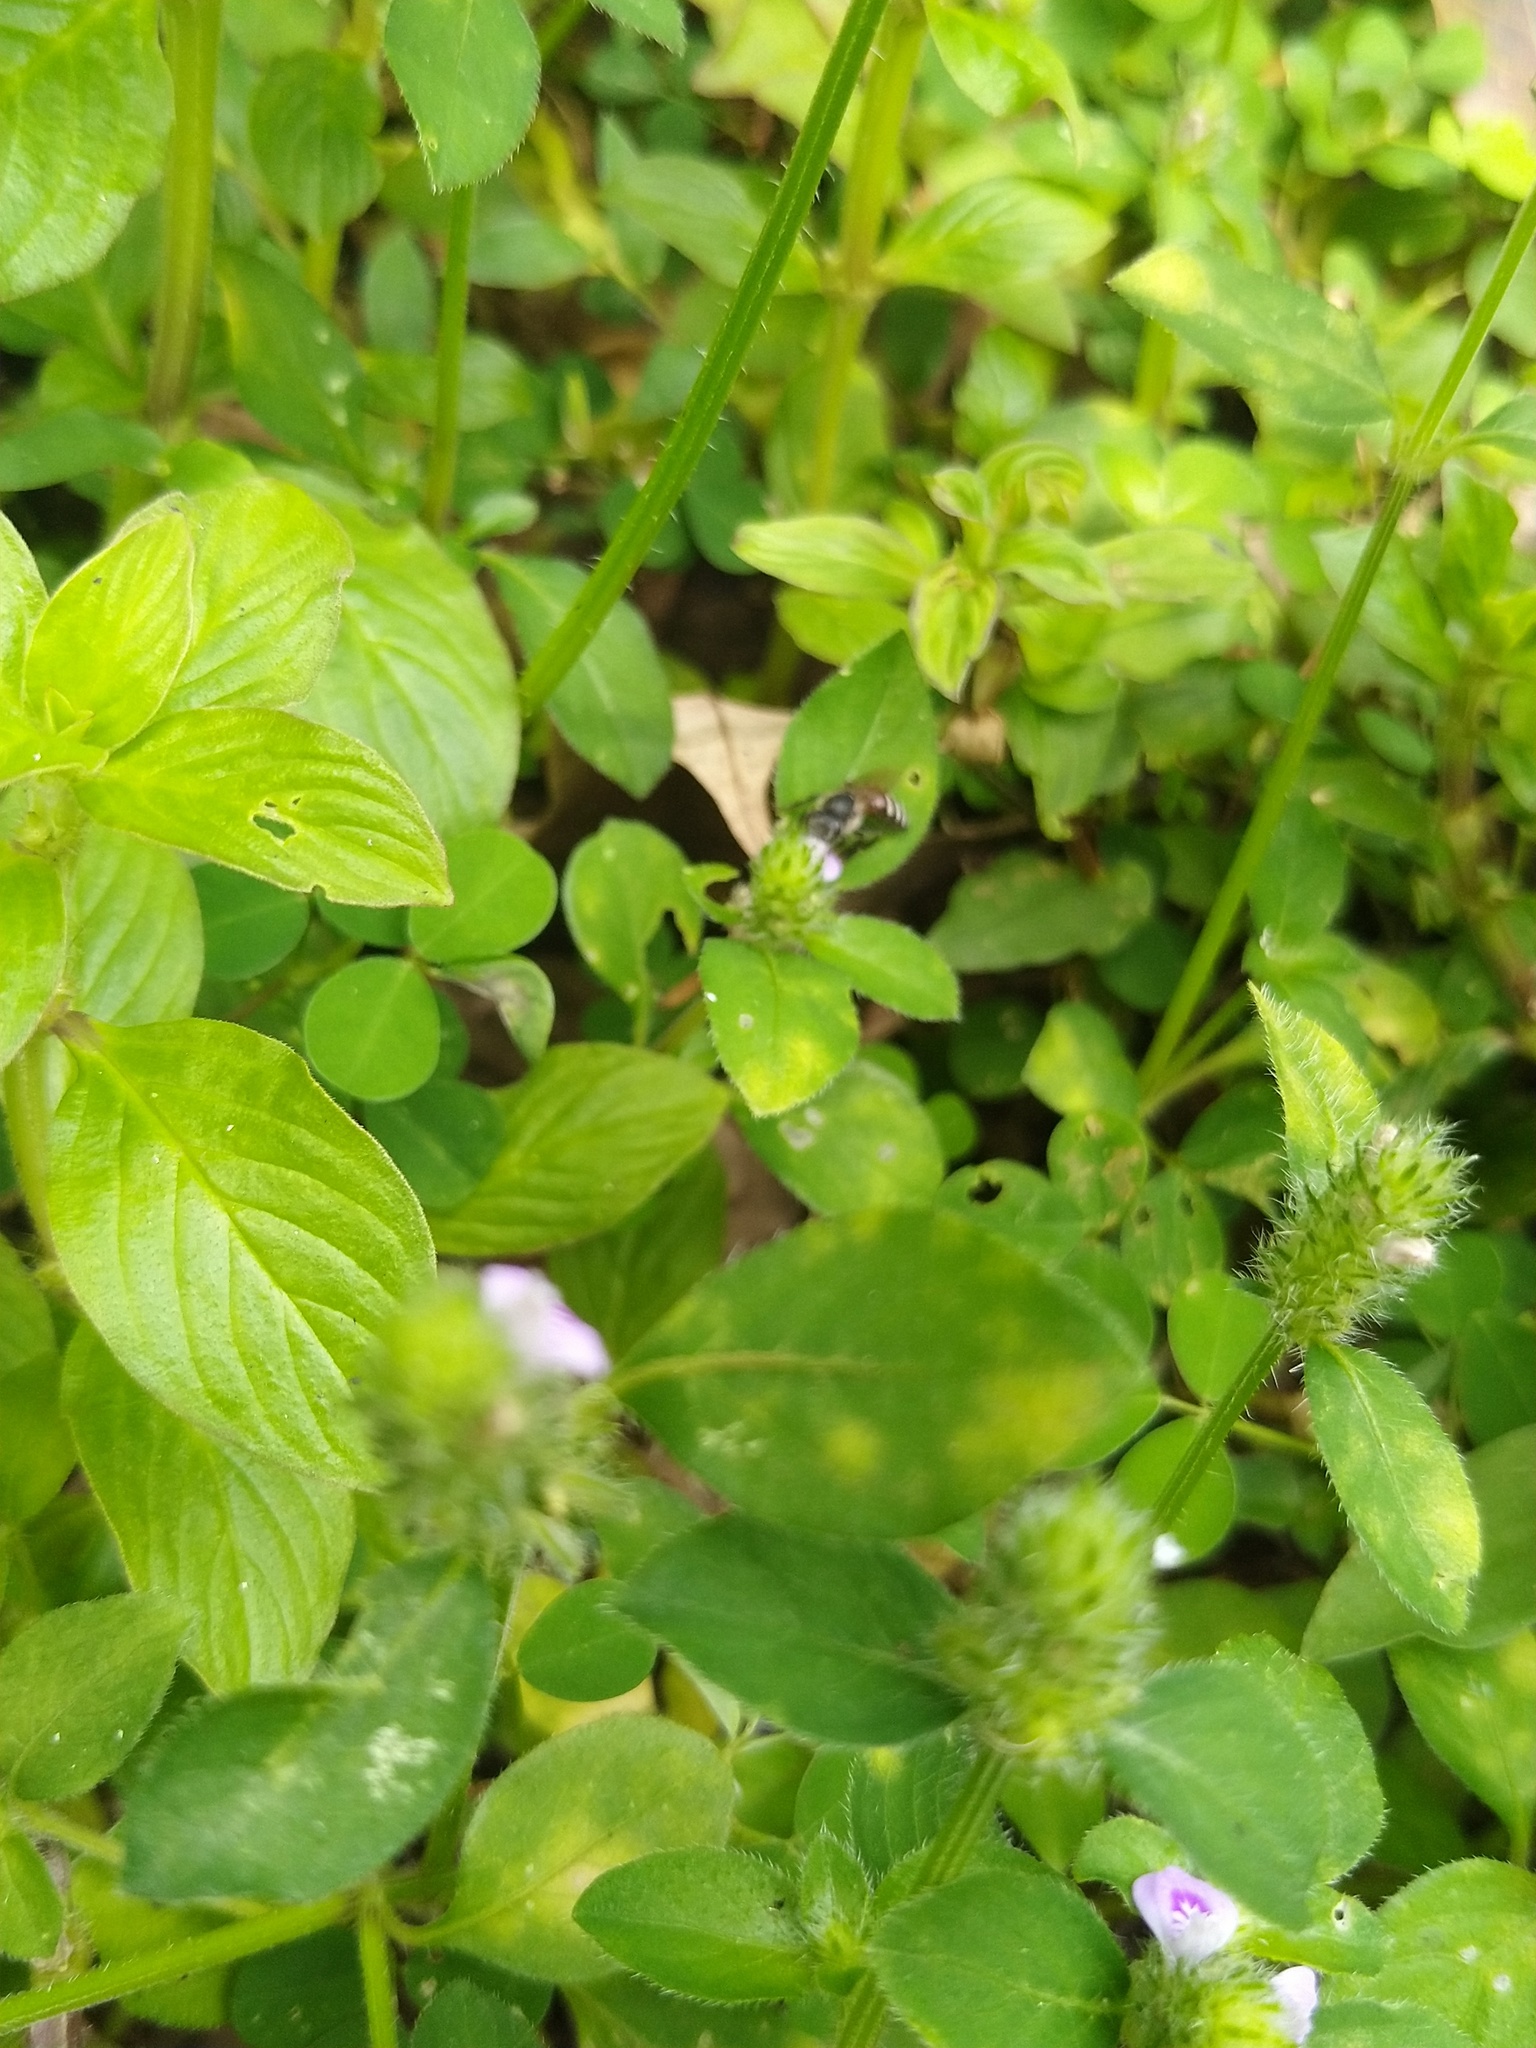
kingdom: Animalia
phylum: Arthropoda
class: Insecta
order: Hymenoptera
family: Apidae
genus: Apis
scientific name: Apis florea
